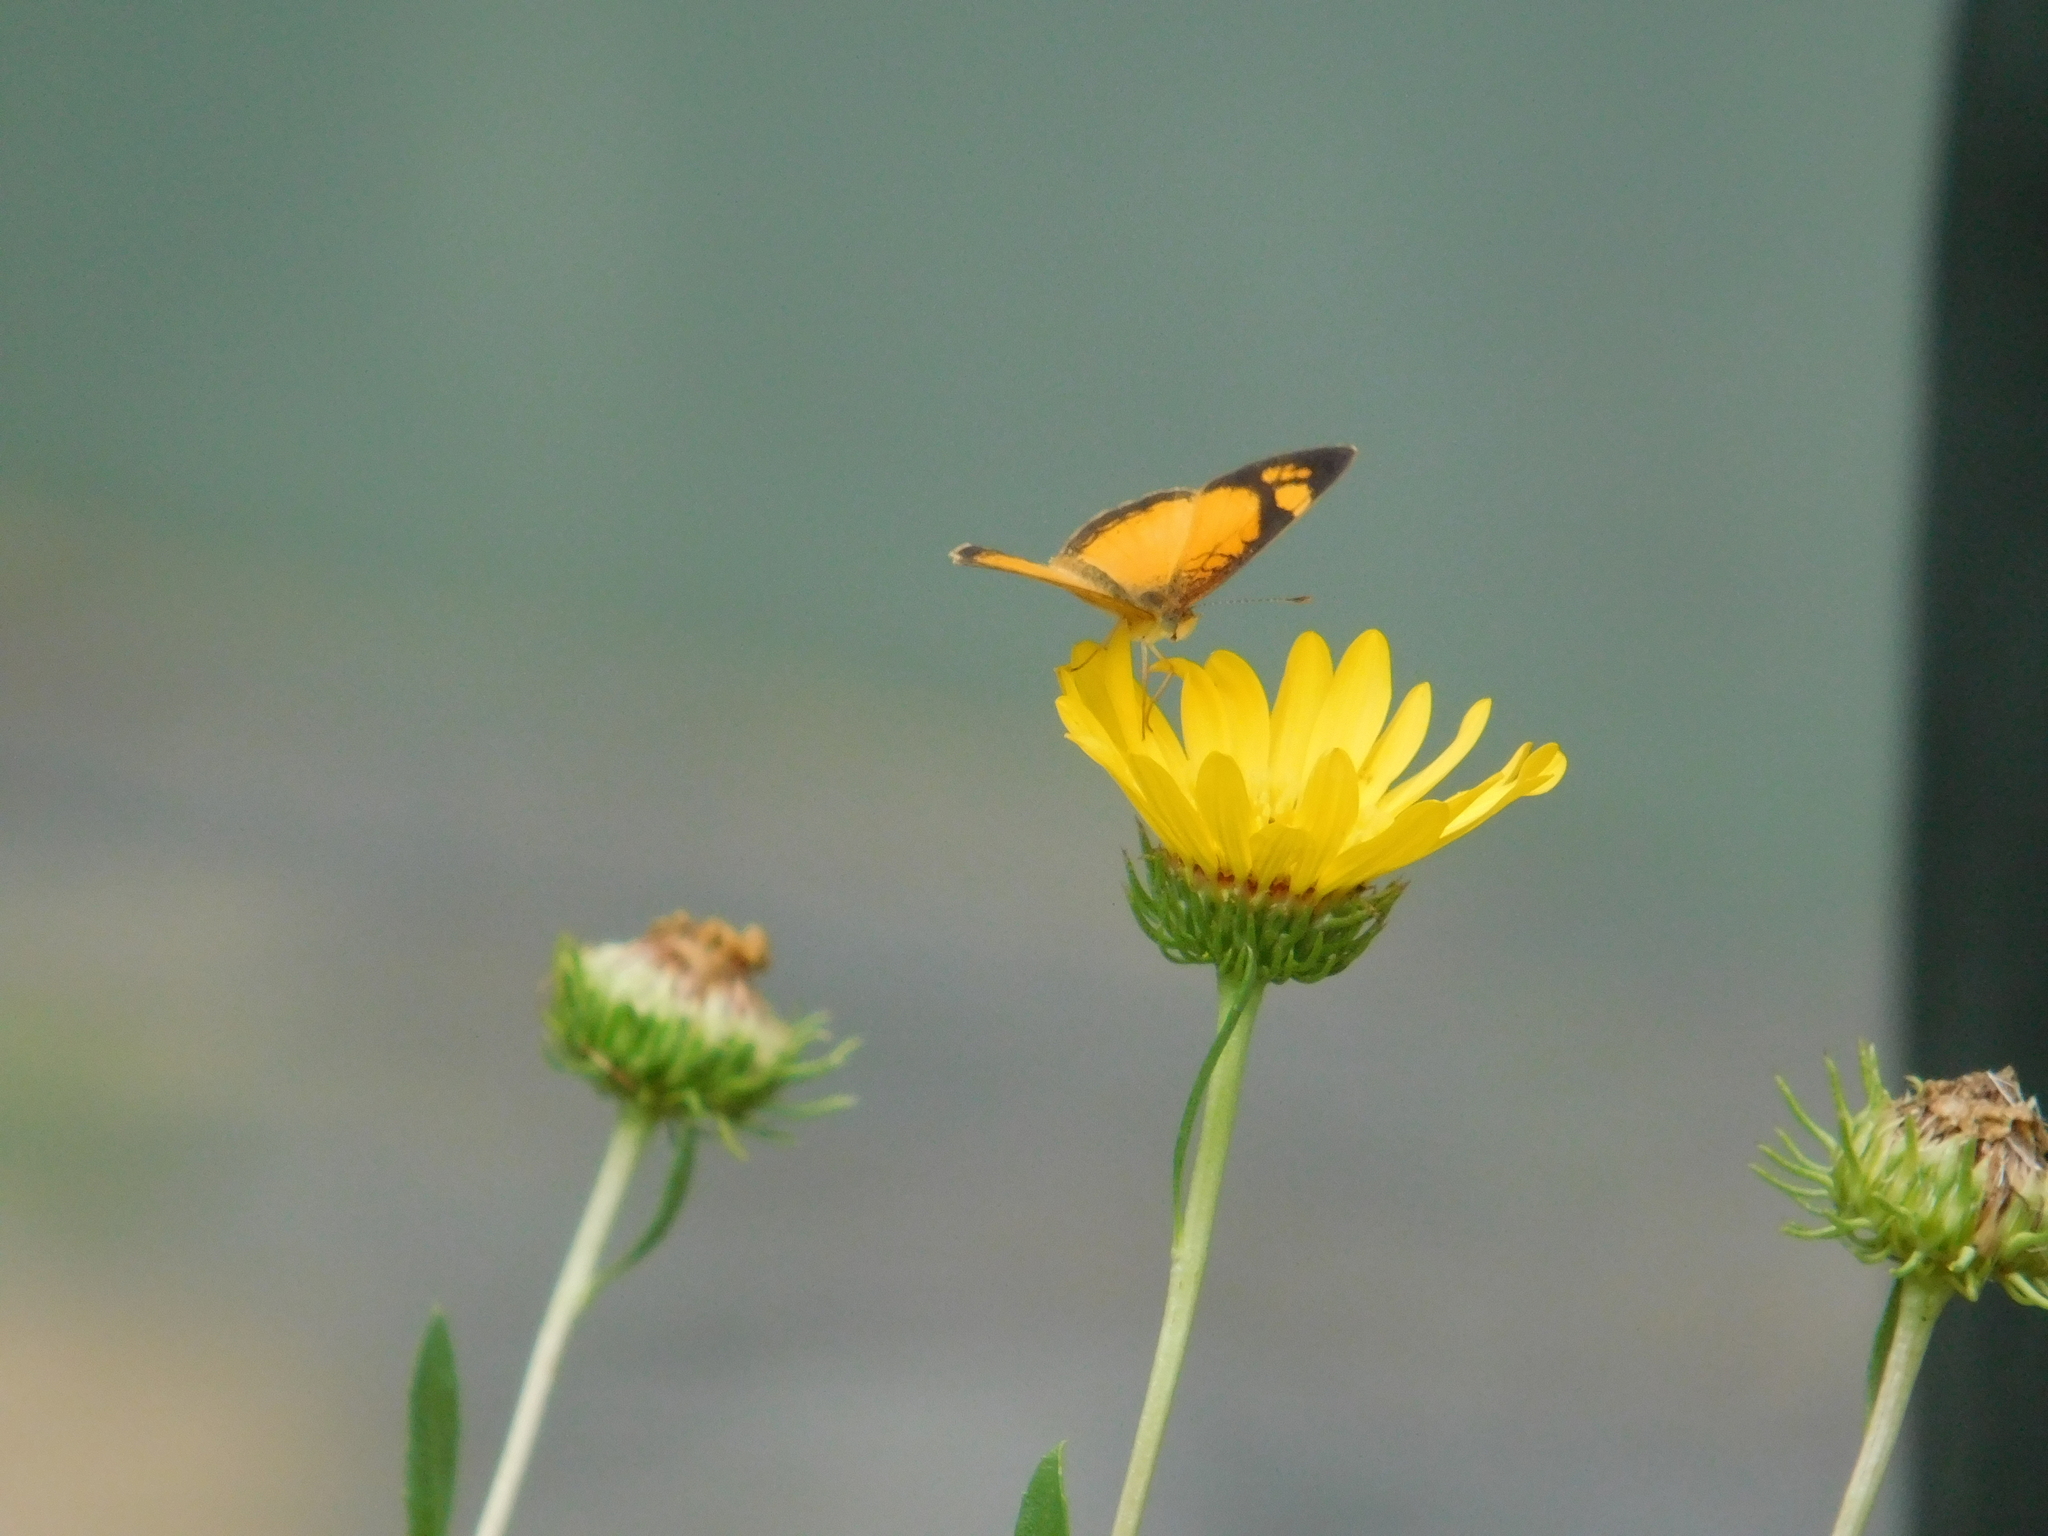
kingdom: Animalia
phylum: Arthropoda
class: Insecta
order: Lepidoptera
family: Nymphalidae
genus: Tegosa
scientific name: Tegosa claudina
